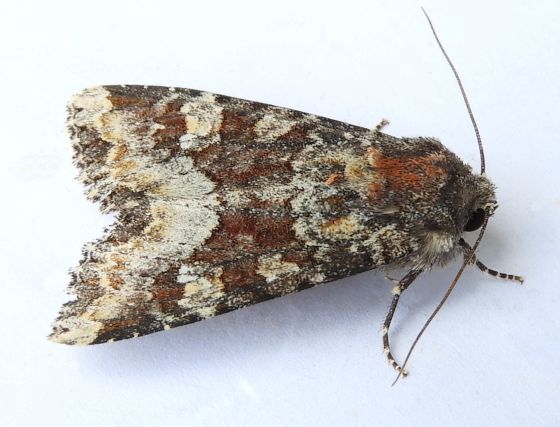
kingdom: Animalia
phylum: Arthropoda
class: Insecta
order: Lepidoptera
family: Noctuidae
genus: Apamea
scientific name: Apamea amputatrix
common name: Yellow-headed cutworm moth
